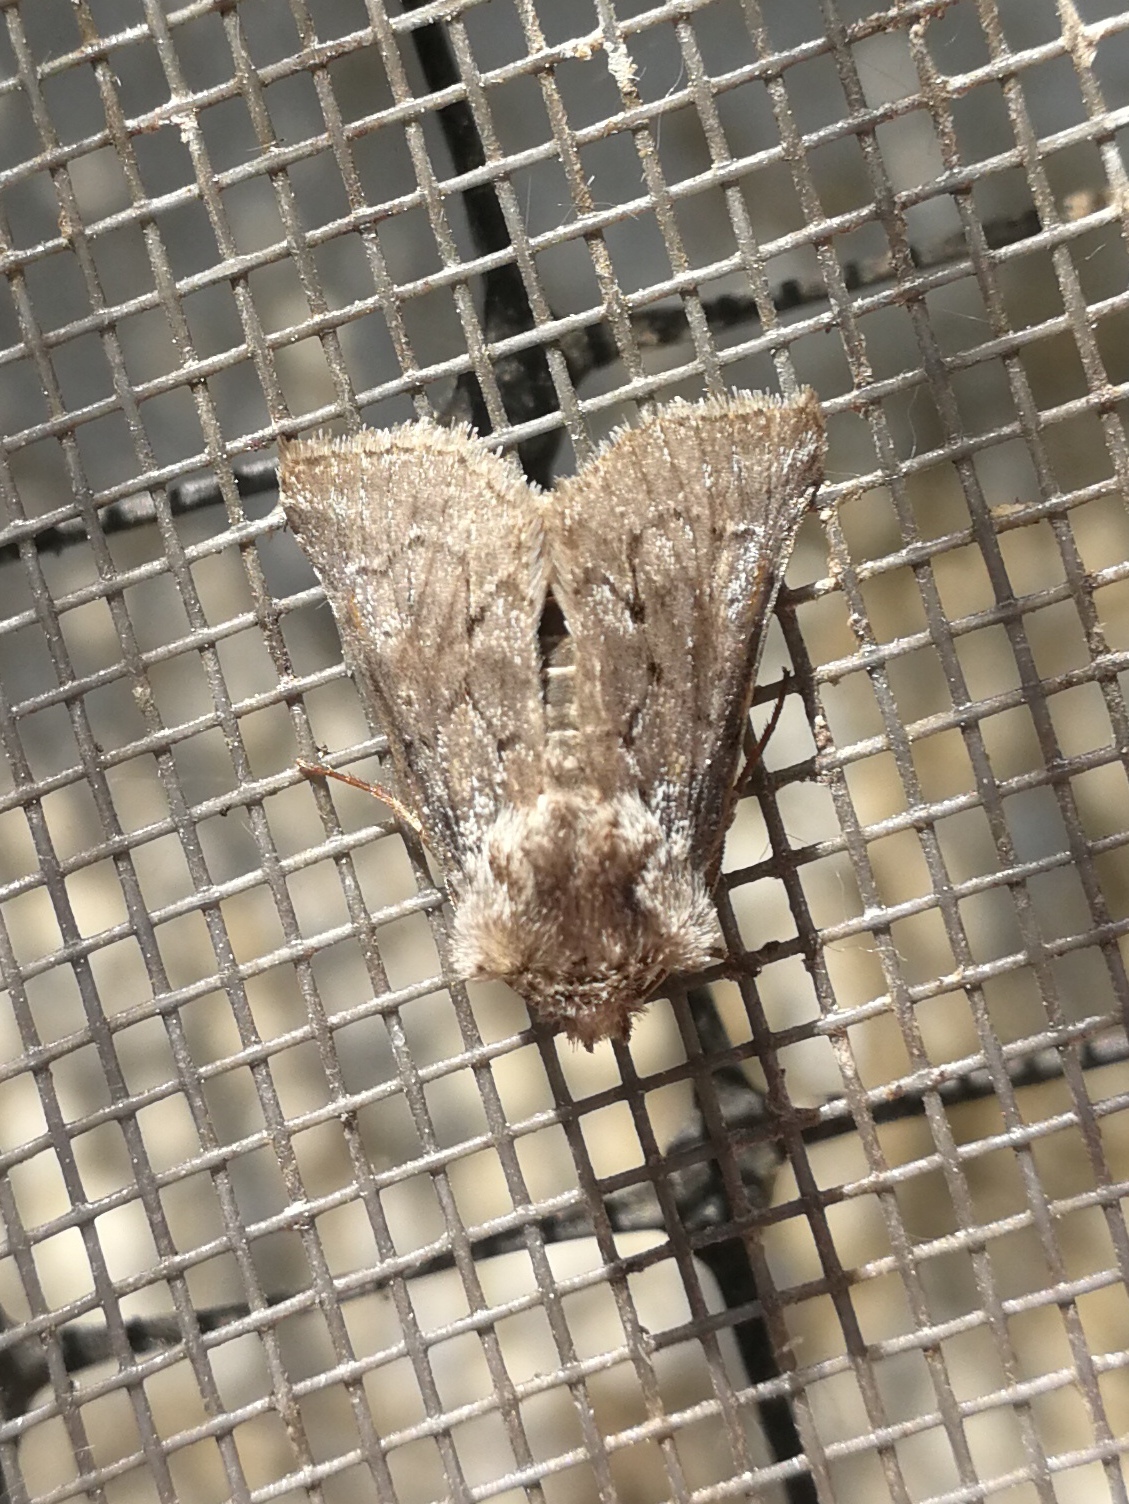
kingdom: Animalia
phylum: Arthropoda
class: Insecta
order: Lepidoptera
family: Noctuidae
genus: Cleonymia
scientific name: Cleonymia yvanii
